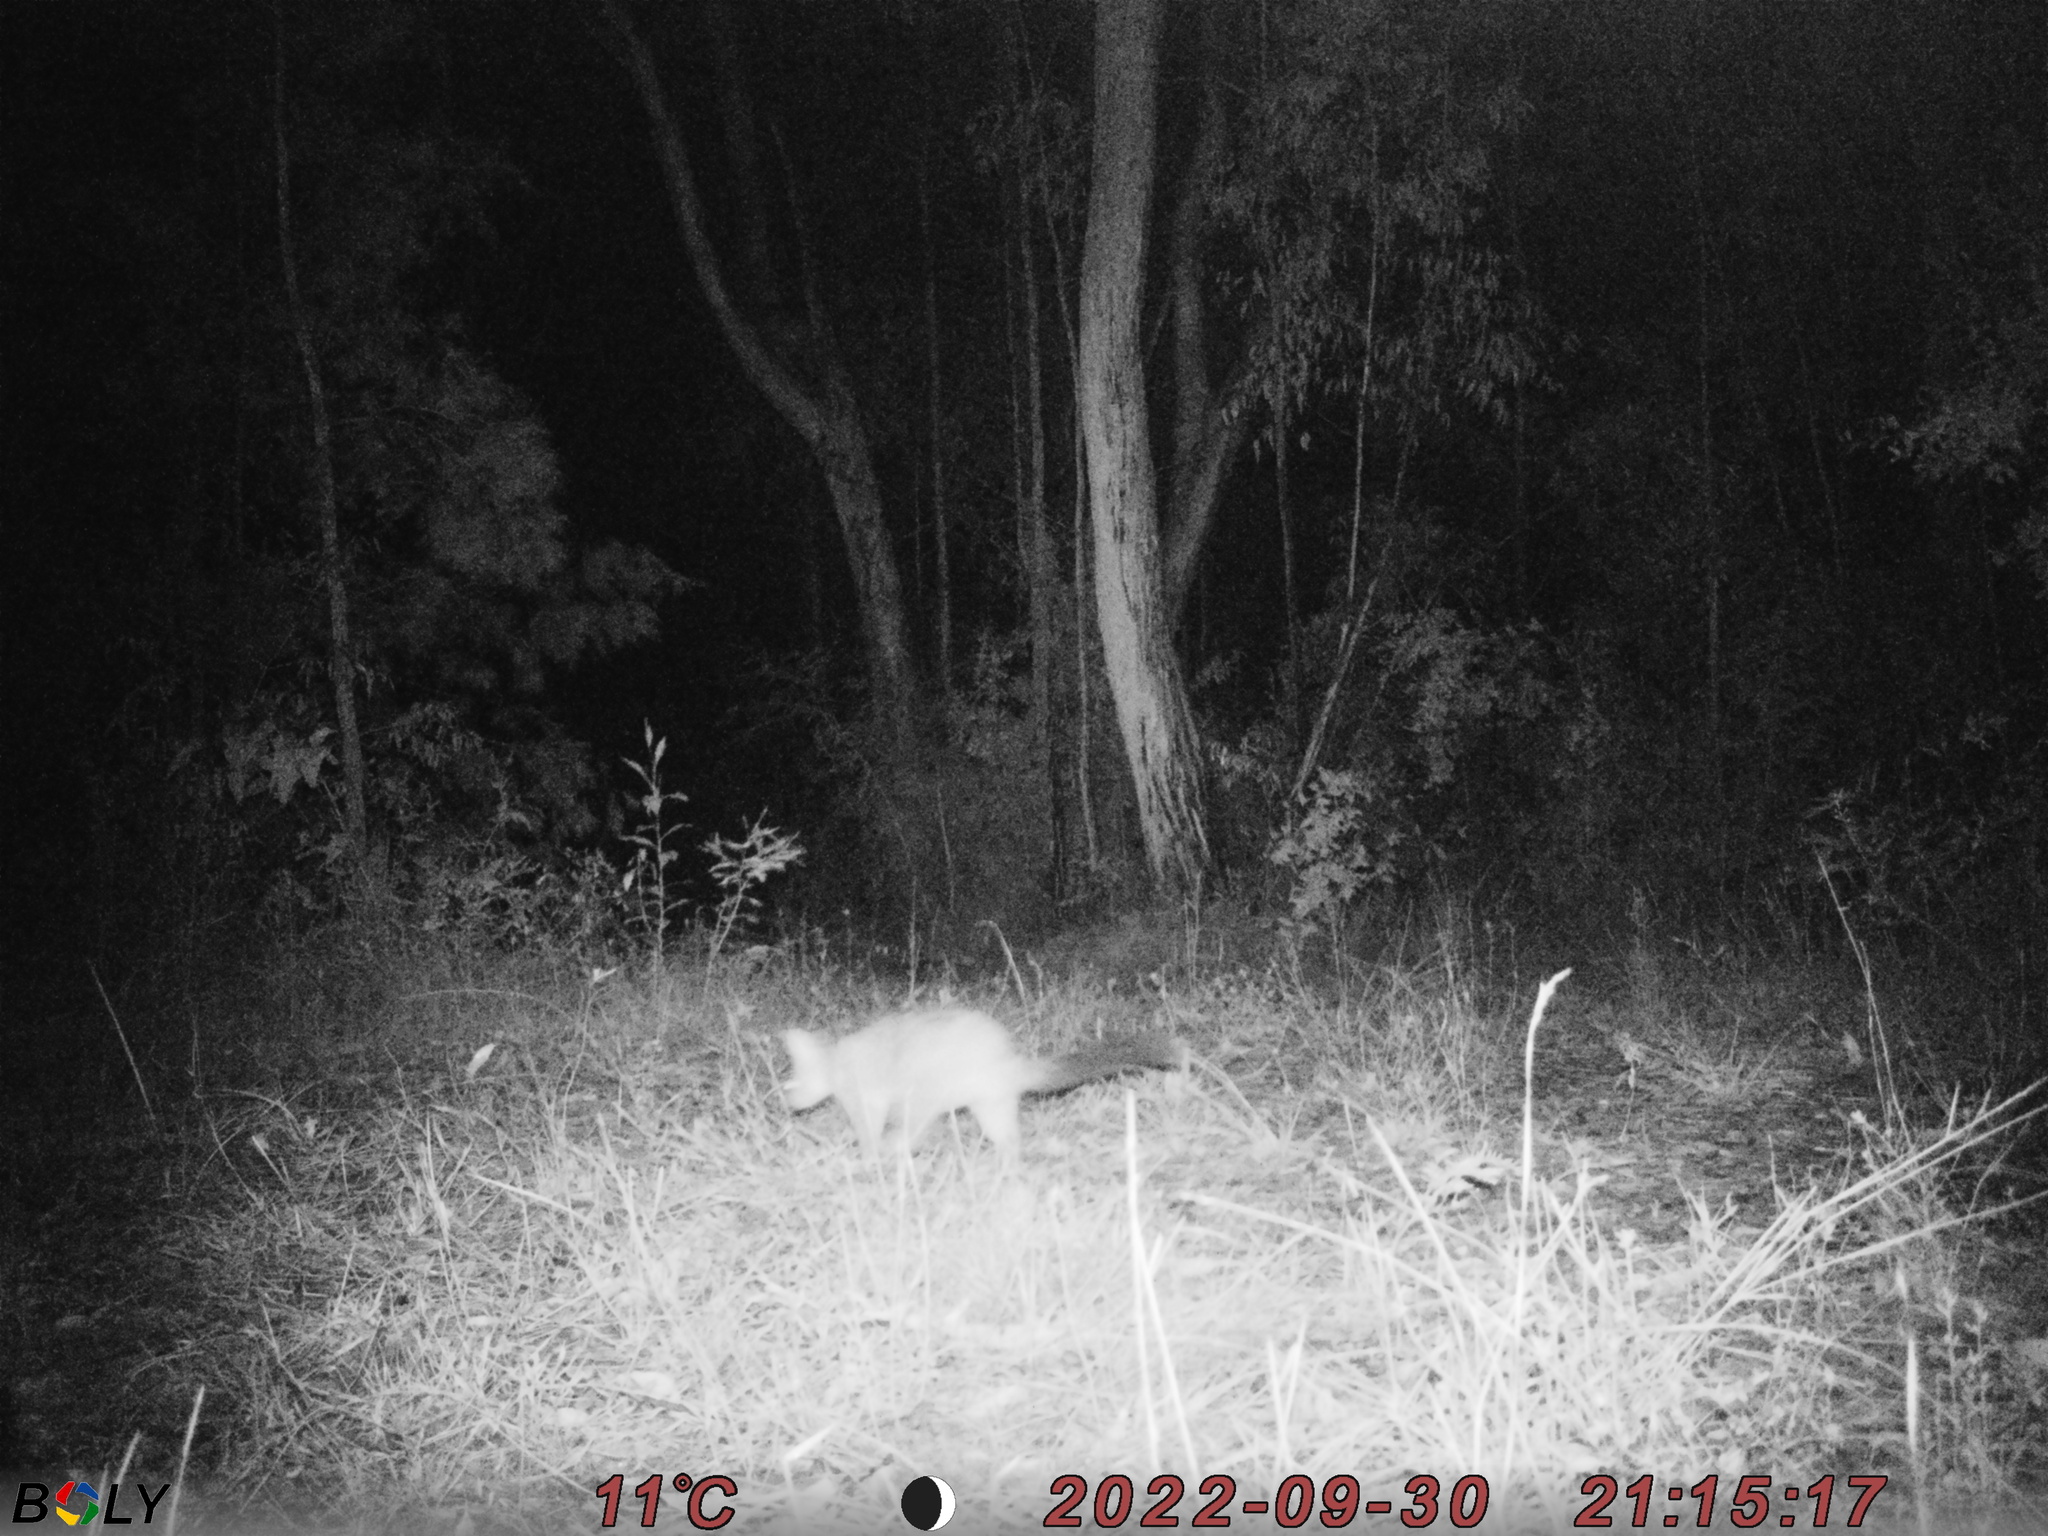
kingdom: Animalia
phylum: Chordata
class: Mammalia
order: Diprotodontia
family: Phalangeridae
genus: Trichosurus
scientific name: Trichosurus vulpecula
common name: Common brushtail
